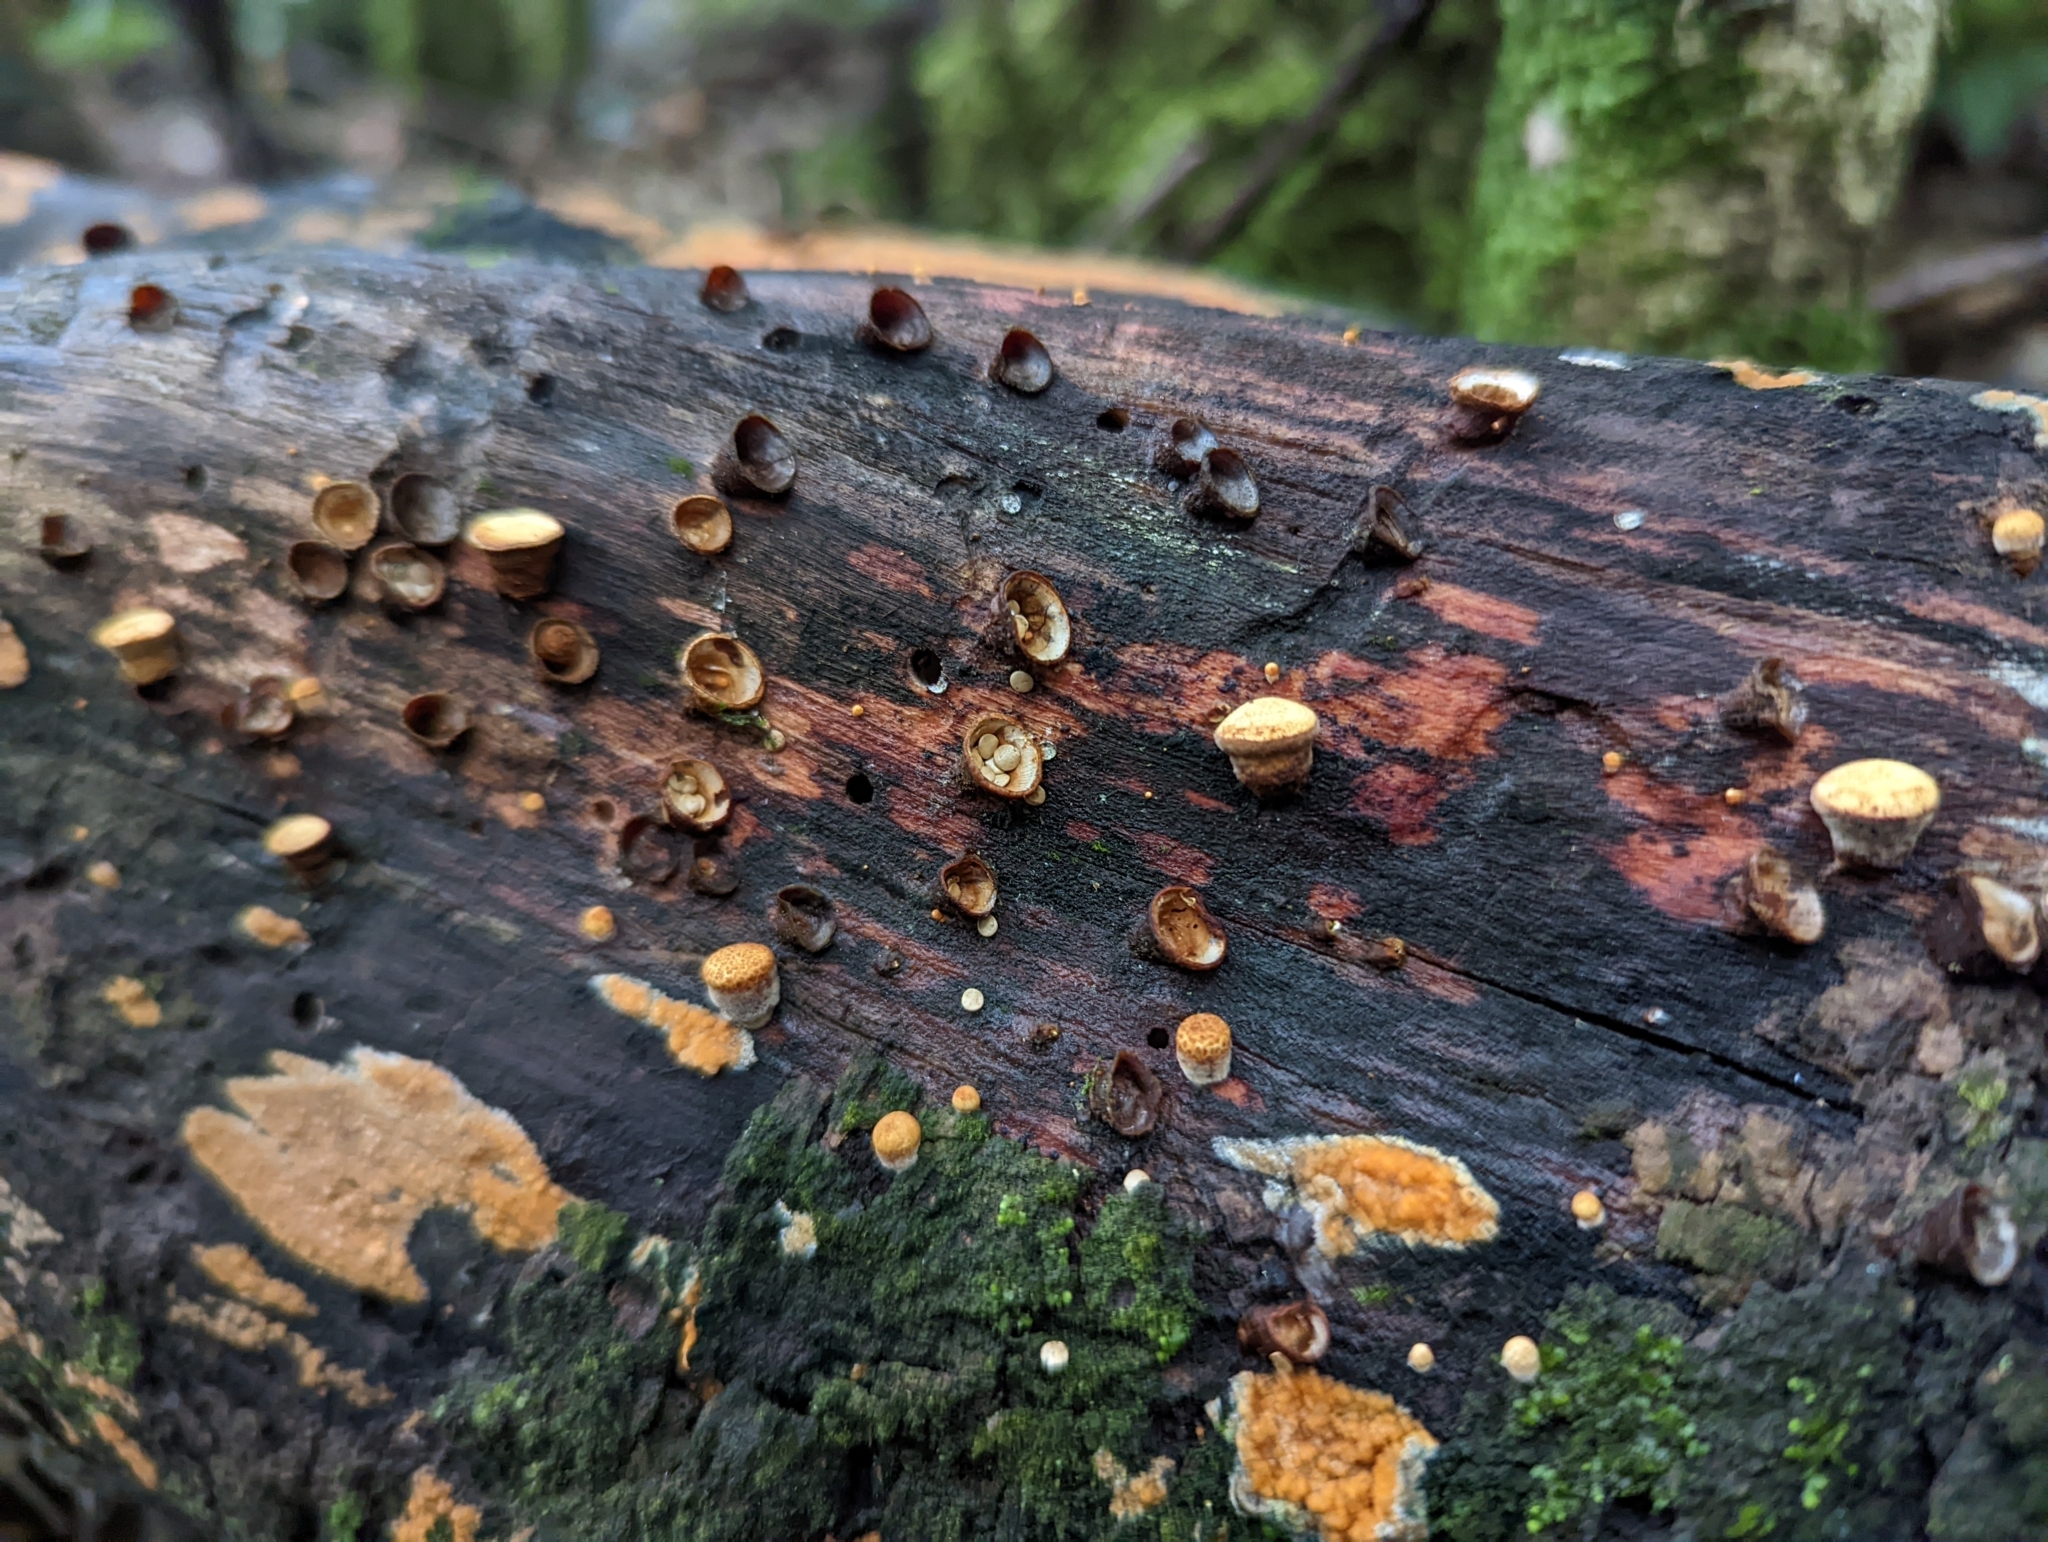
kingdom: Fungi
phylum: Basidiomycota
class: Agaricomycetes
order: Agaricales
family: Nidulariaceae
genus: Crucibulum
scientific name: Crucibulum simile
